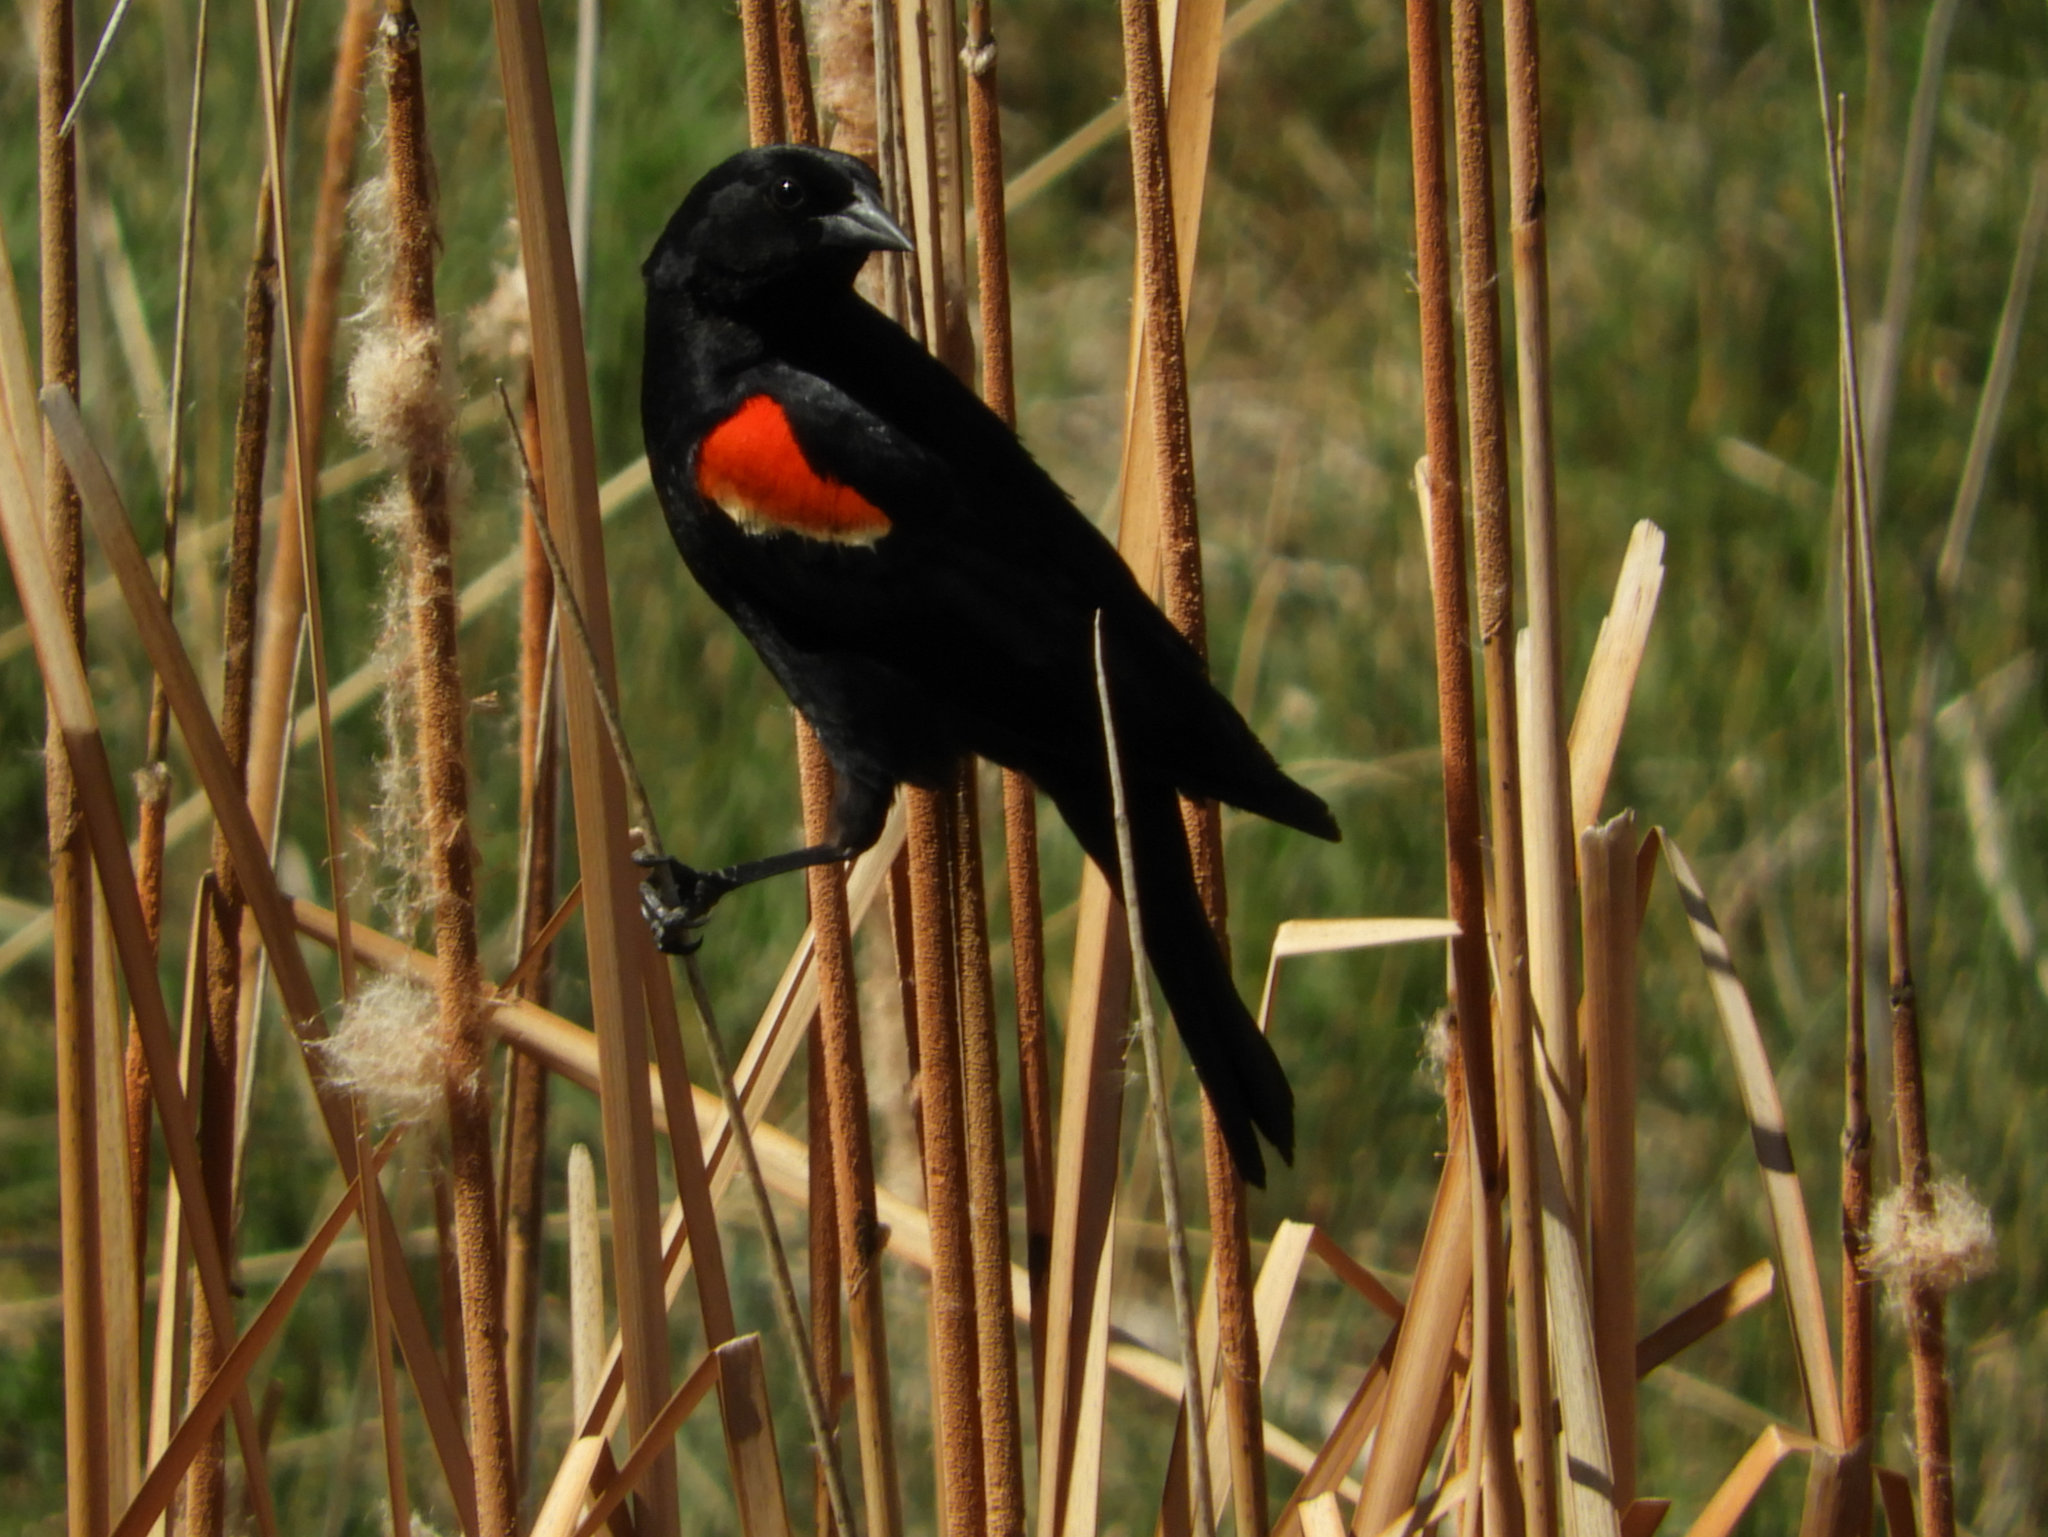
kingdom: Animalia
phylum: Chordata
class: Aves
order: Passeriformes
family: Icteridae
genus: Agelaius
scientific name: Agelaius phoeniceus
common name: Red-winged blackbird
